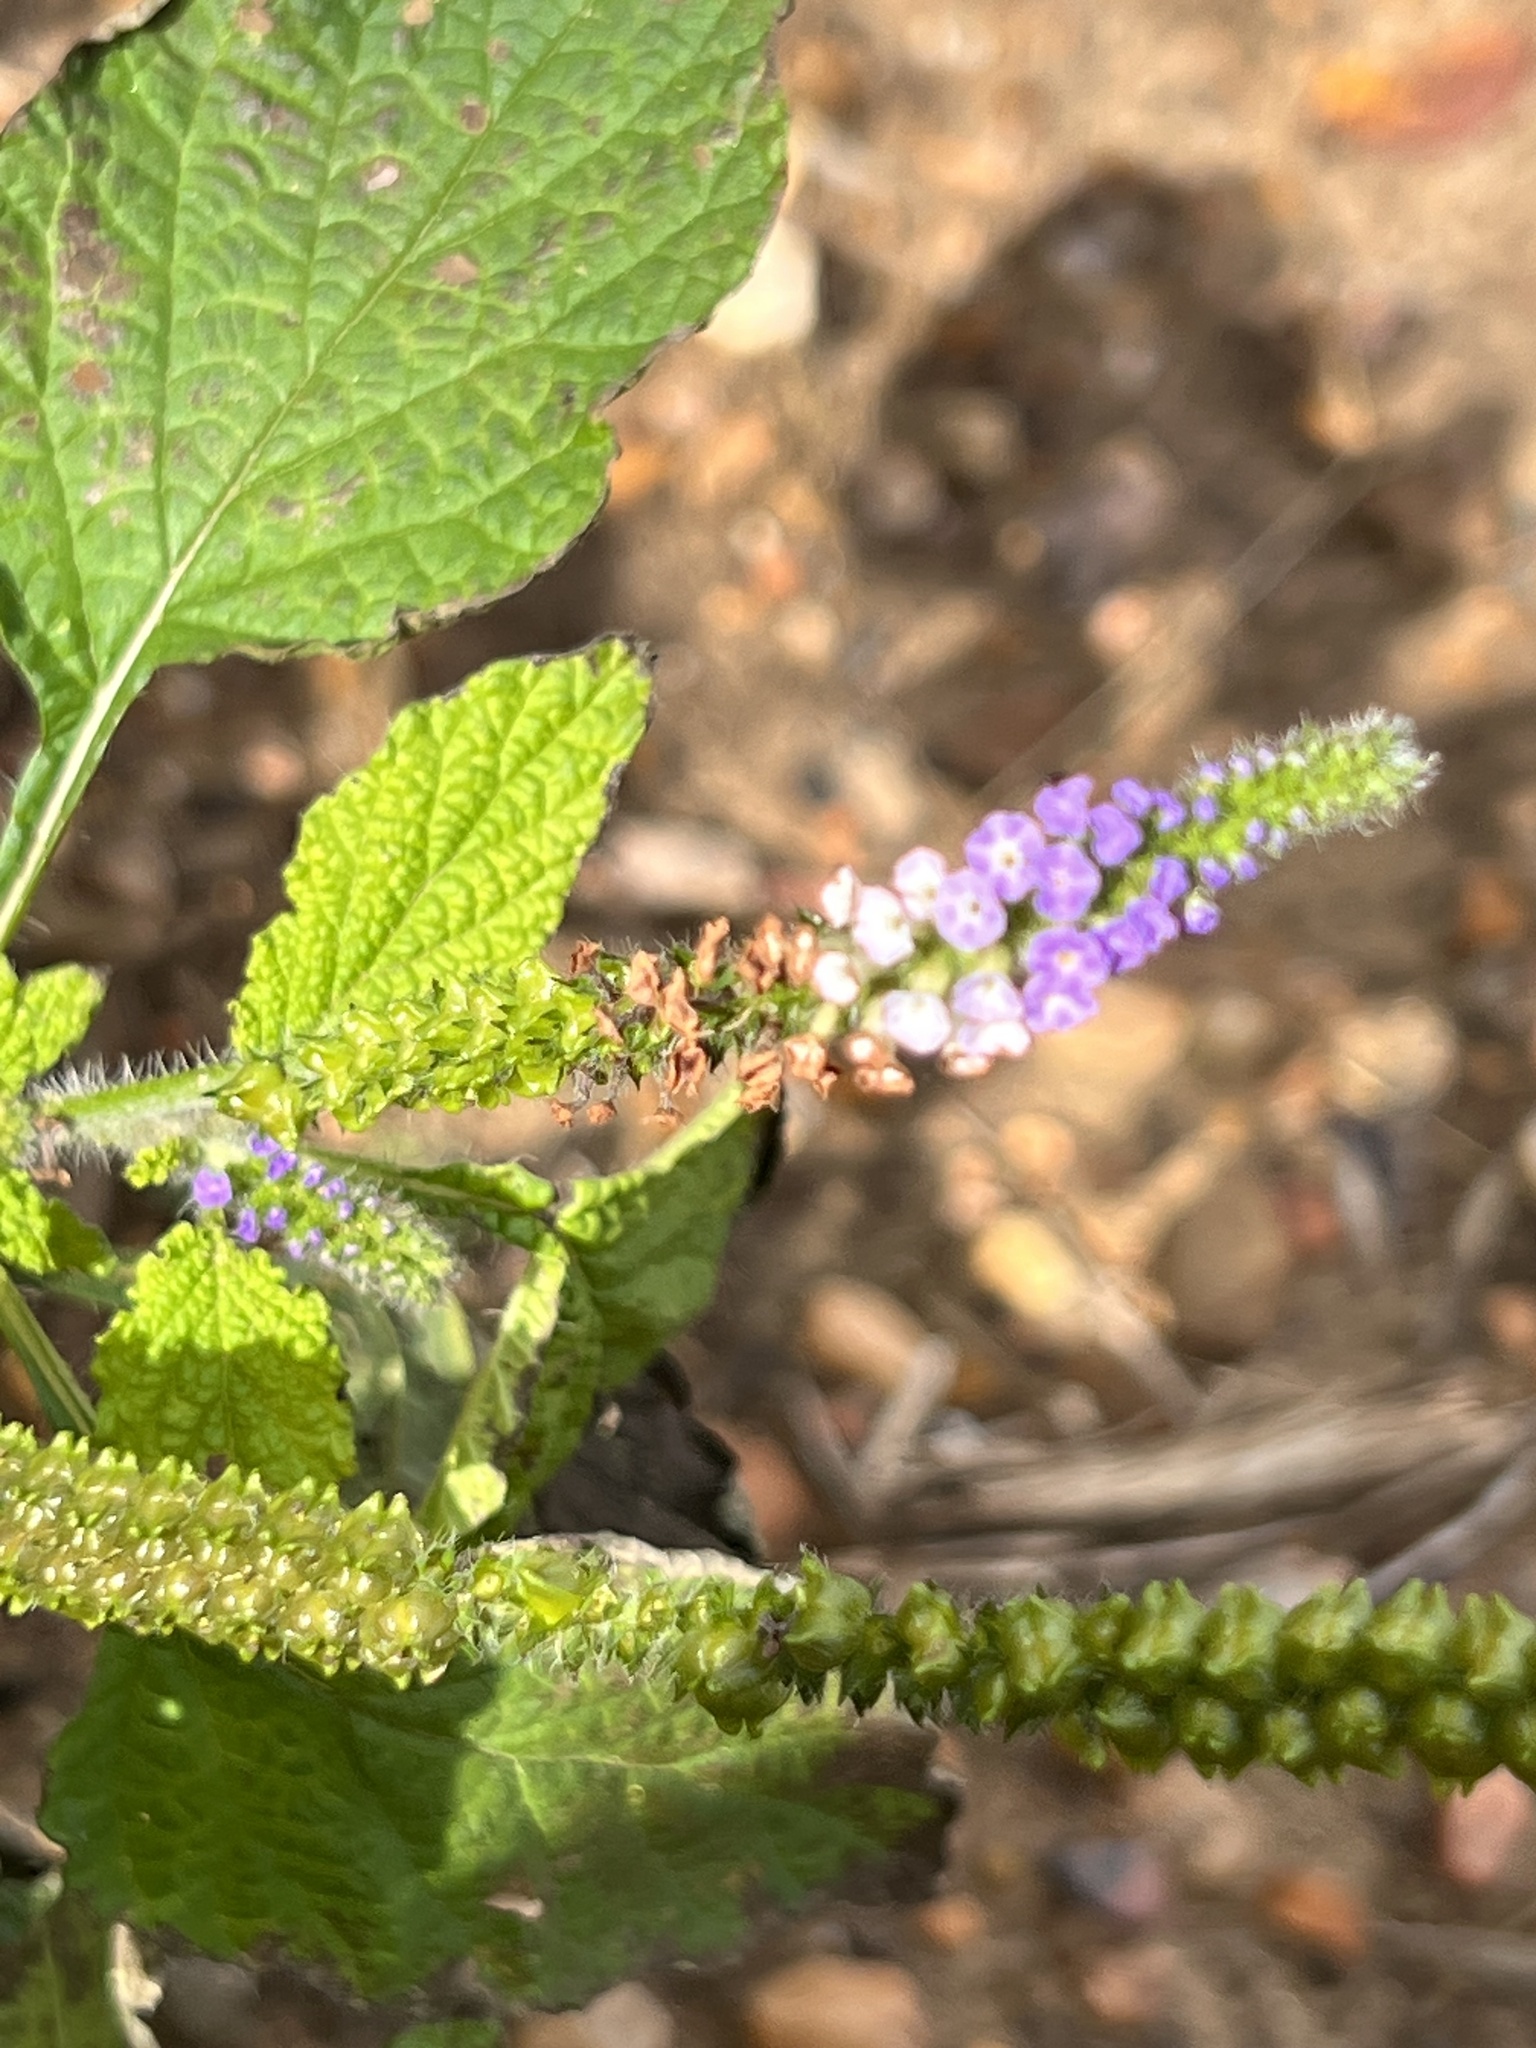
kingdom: Plantae
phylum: Tracheophyta
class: Magnoliopsida
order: Boraginales
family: Heliotropiaceae
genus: Heliotropium
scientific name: Heliotropium indicum
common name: Indian heliotrope
